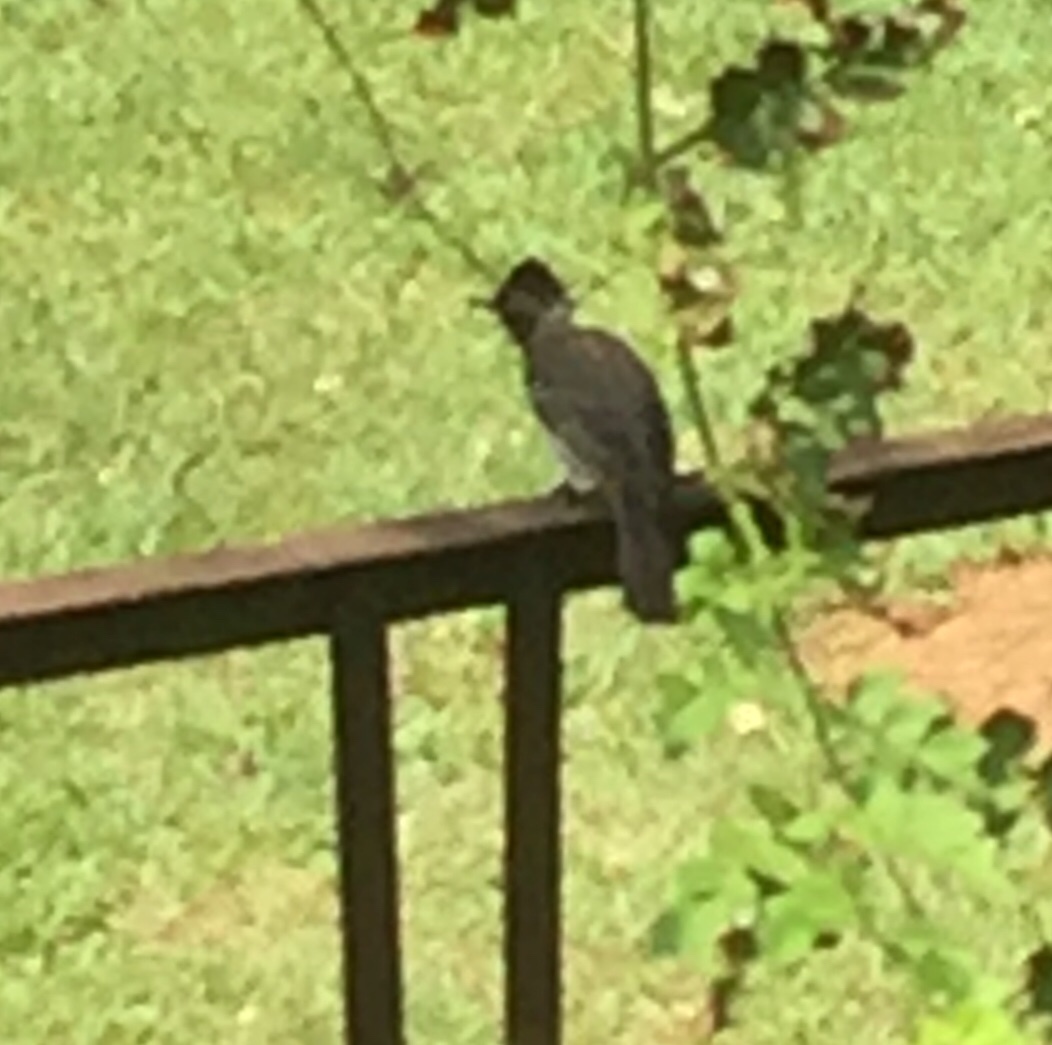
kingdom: Animalia
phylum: Chordata
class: Aves
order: Passeriformes
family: Pycnonotidae
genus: Pycnonotus
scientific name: Pycnonotus cafer
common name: Red-vented bulbul
